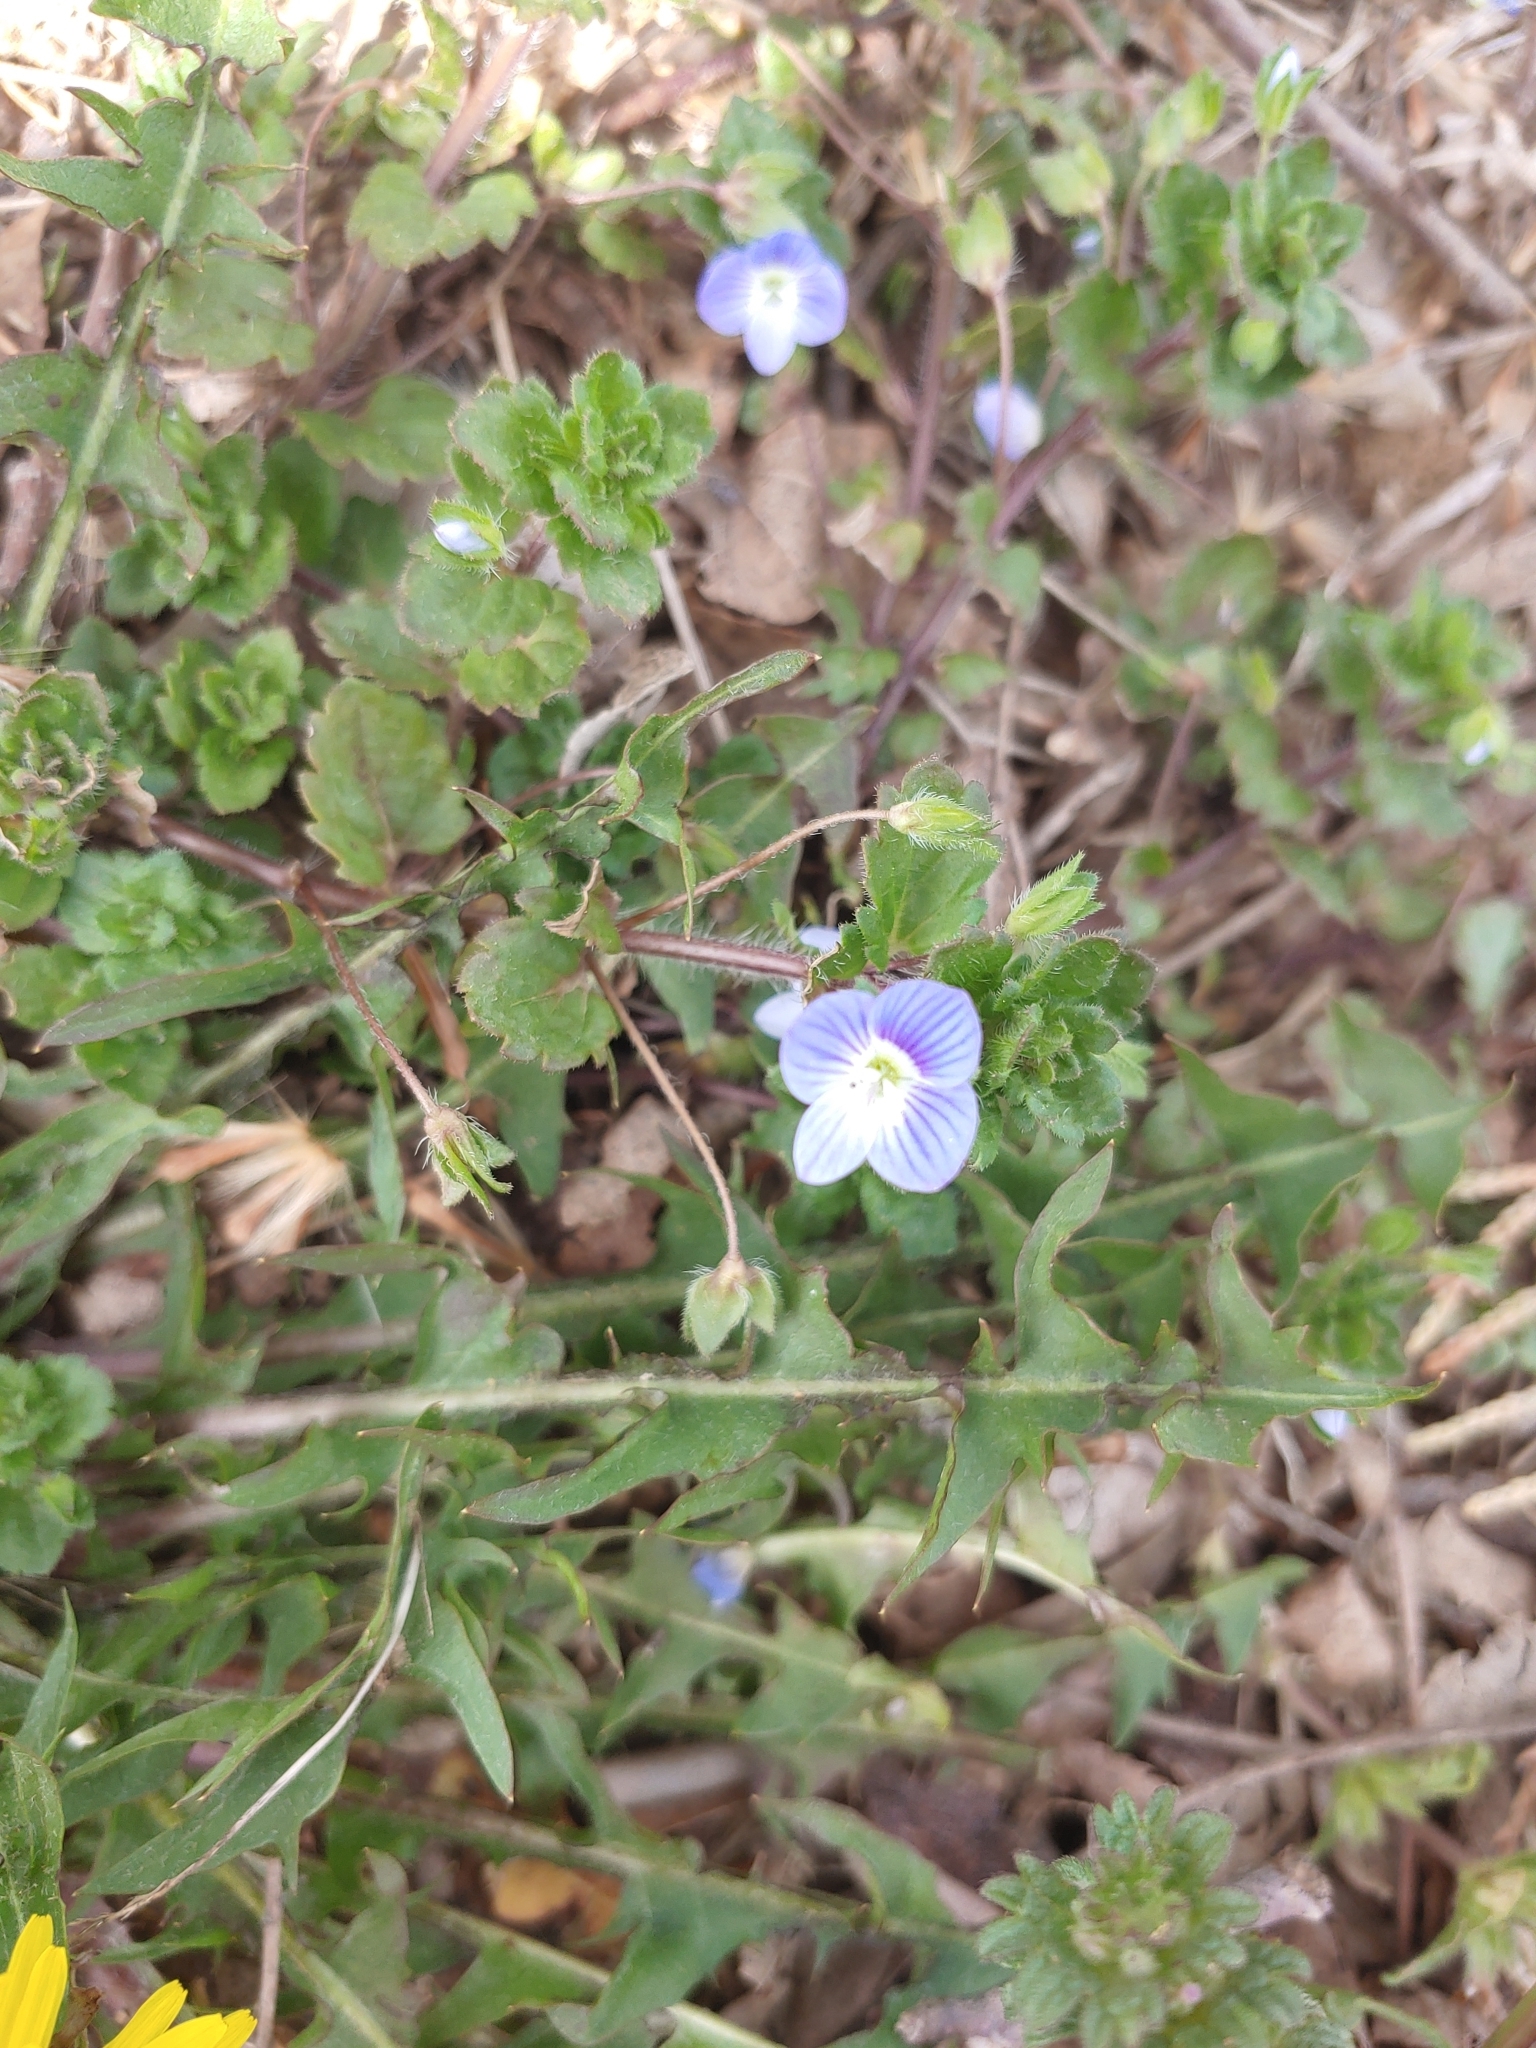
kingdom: Plantae
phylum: Tracheophyta
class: Magnoliopsida
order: Lamiales
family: Plantaginaceae
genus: Veronica
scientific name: Veronica persica
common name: Common field-speedwell
